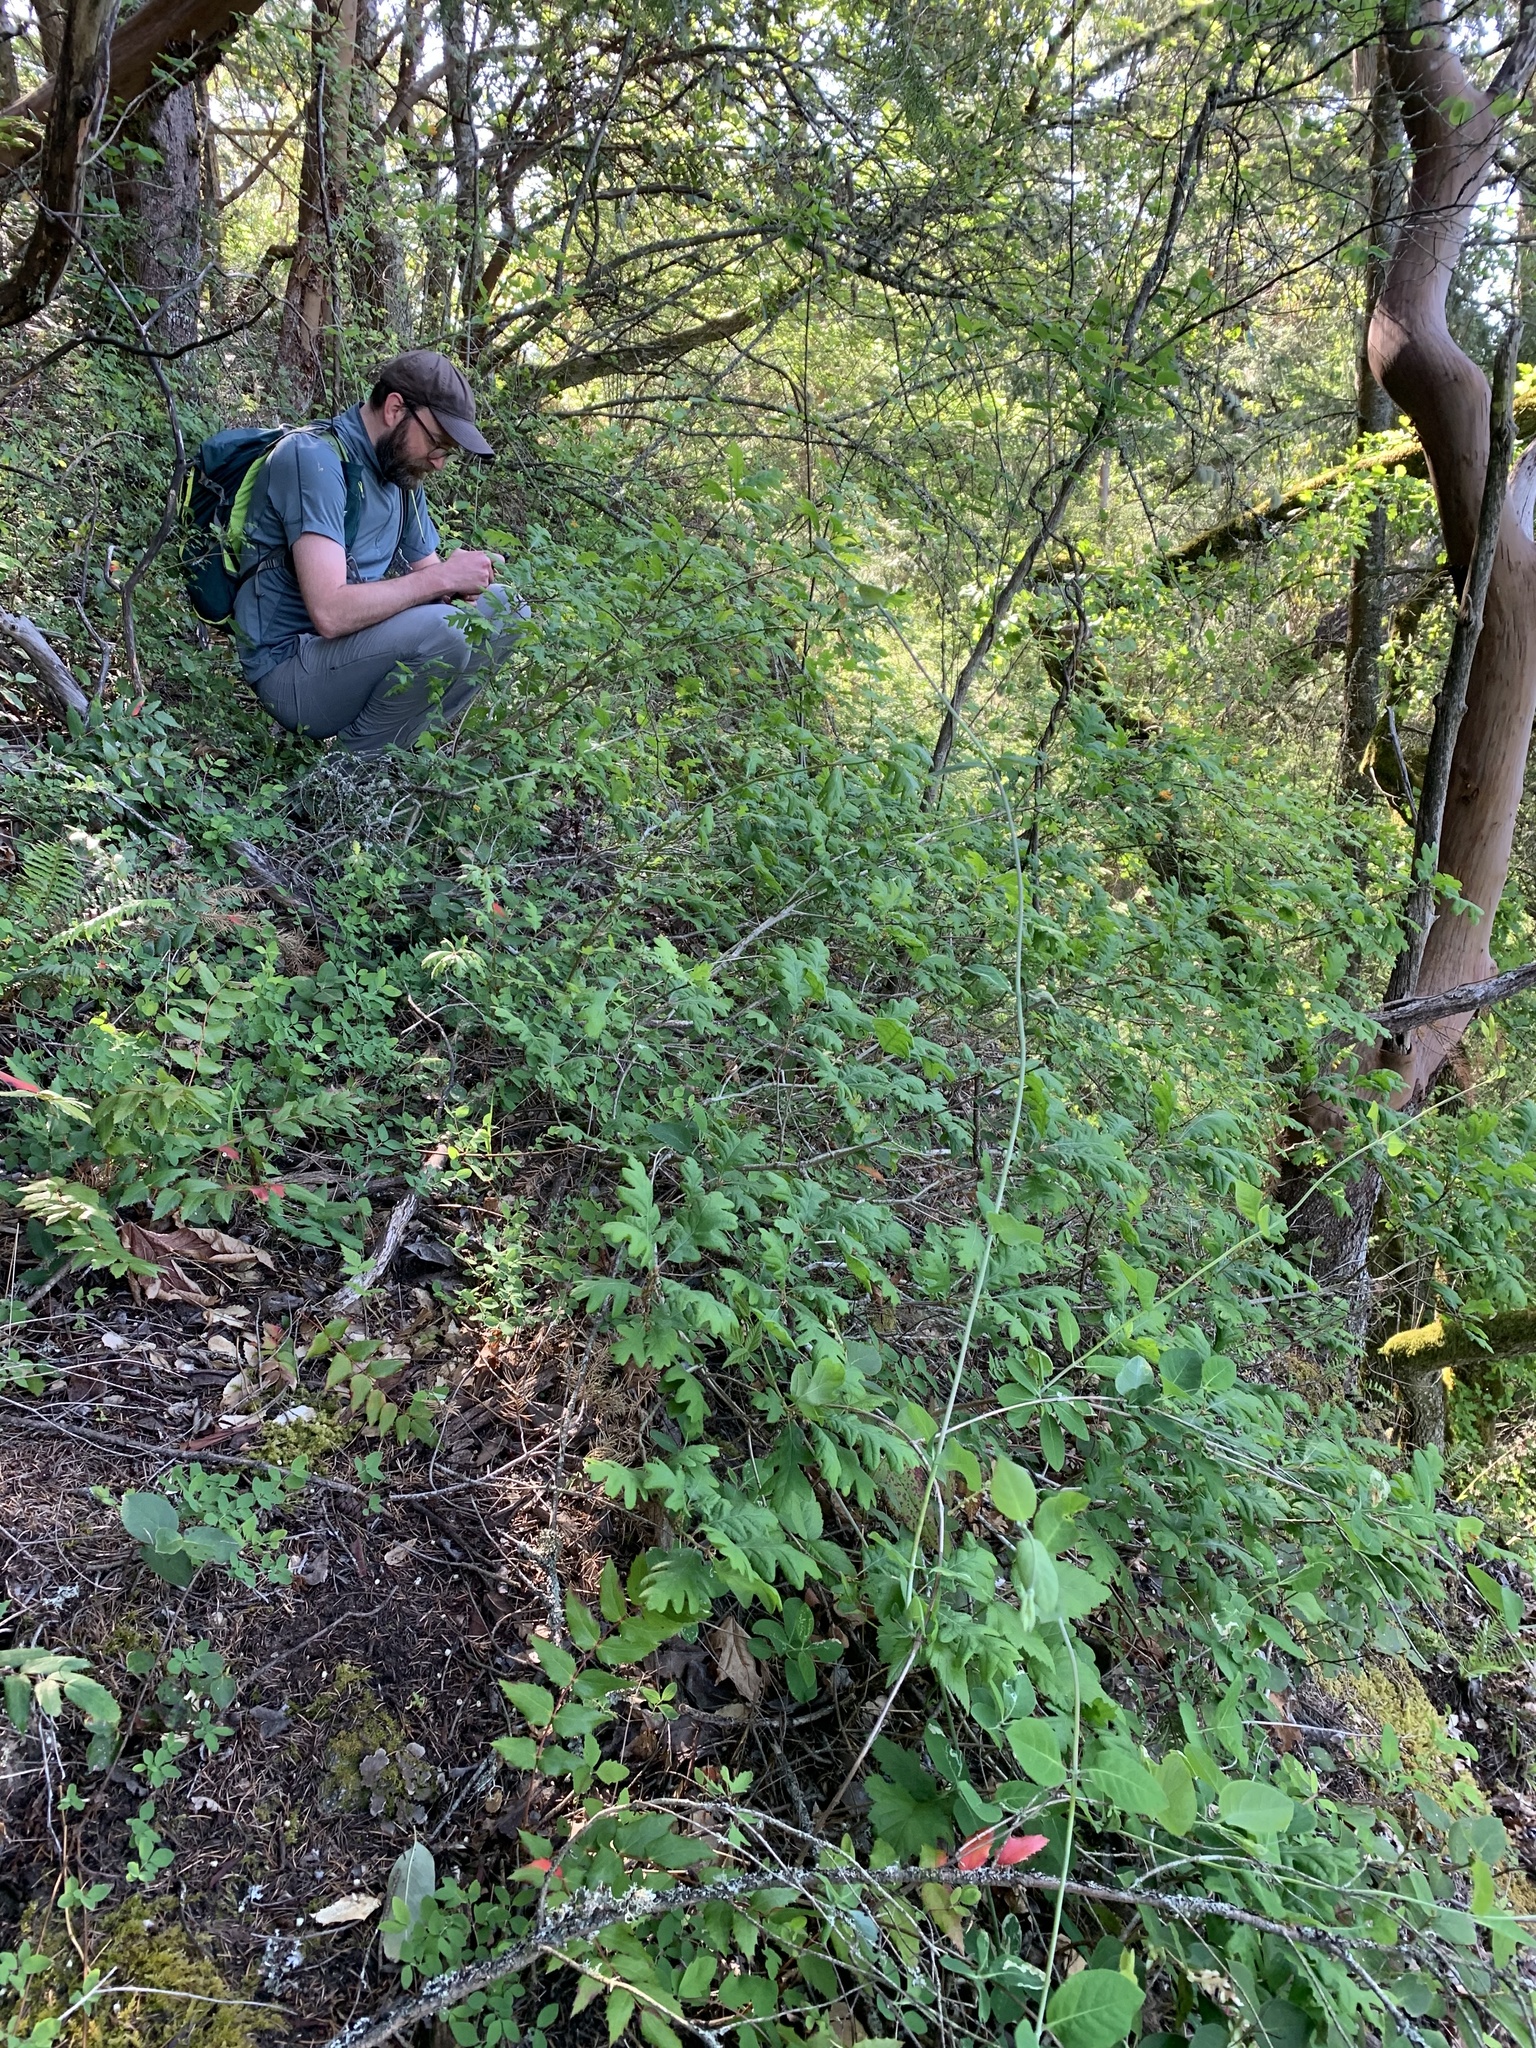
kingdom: Plantae
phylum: Tracheophyta
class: Magnoliopsida
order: Fagales
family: Fagaceae
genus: Quercus
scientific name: Quercus garryana
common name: Garry oak
